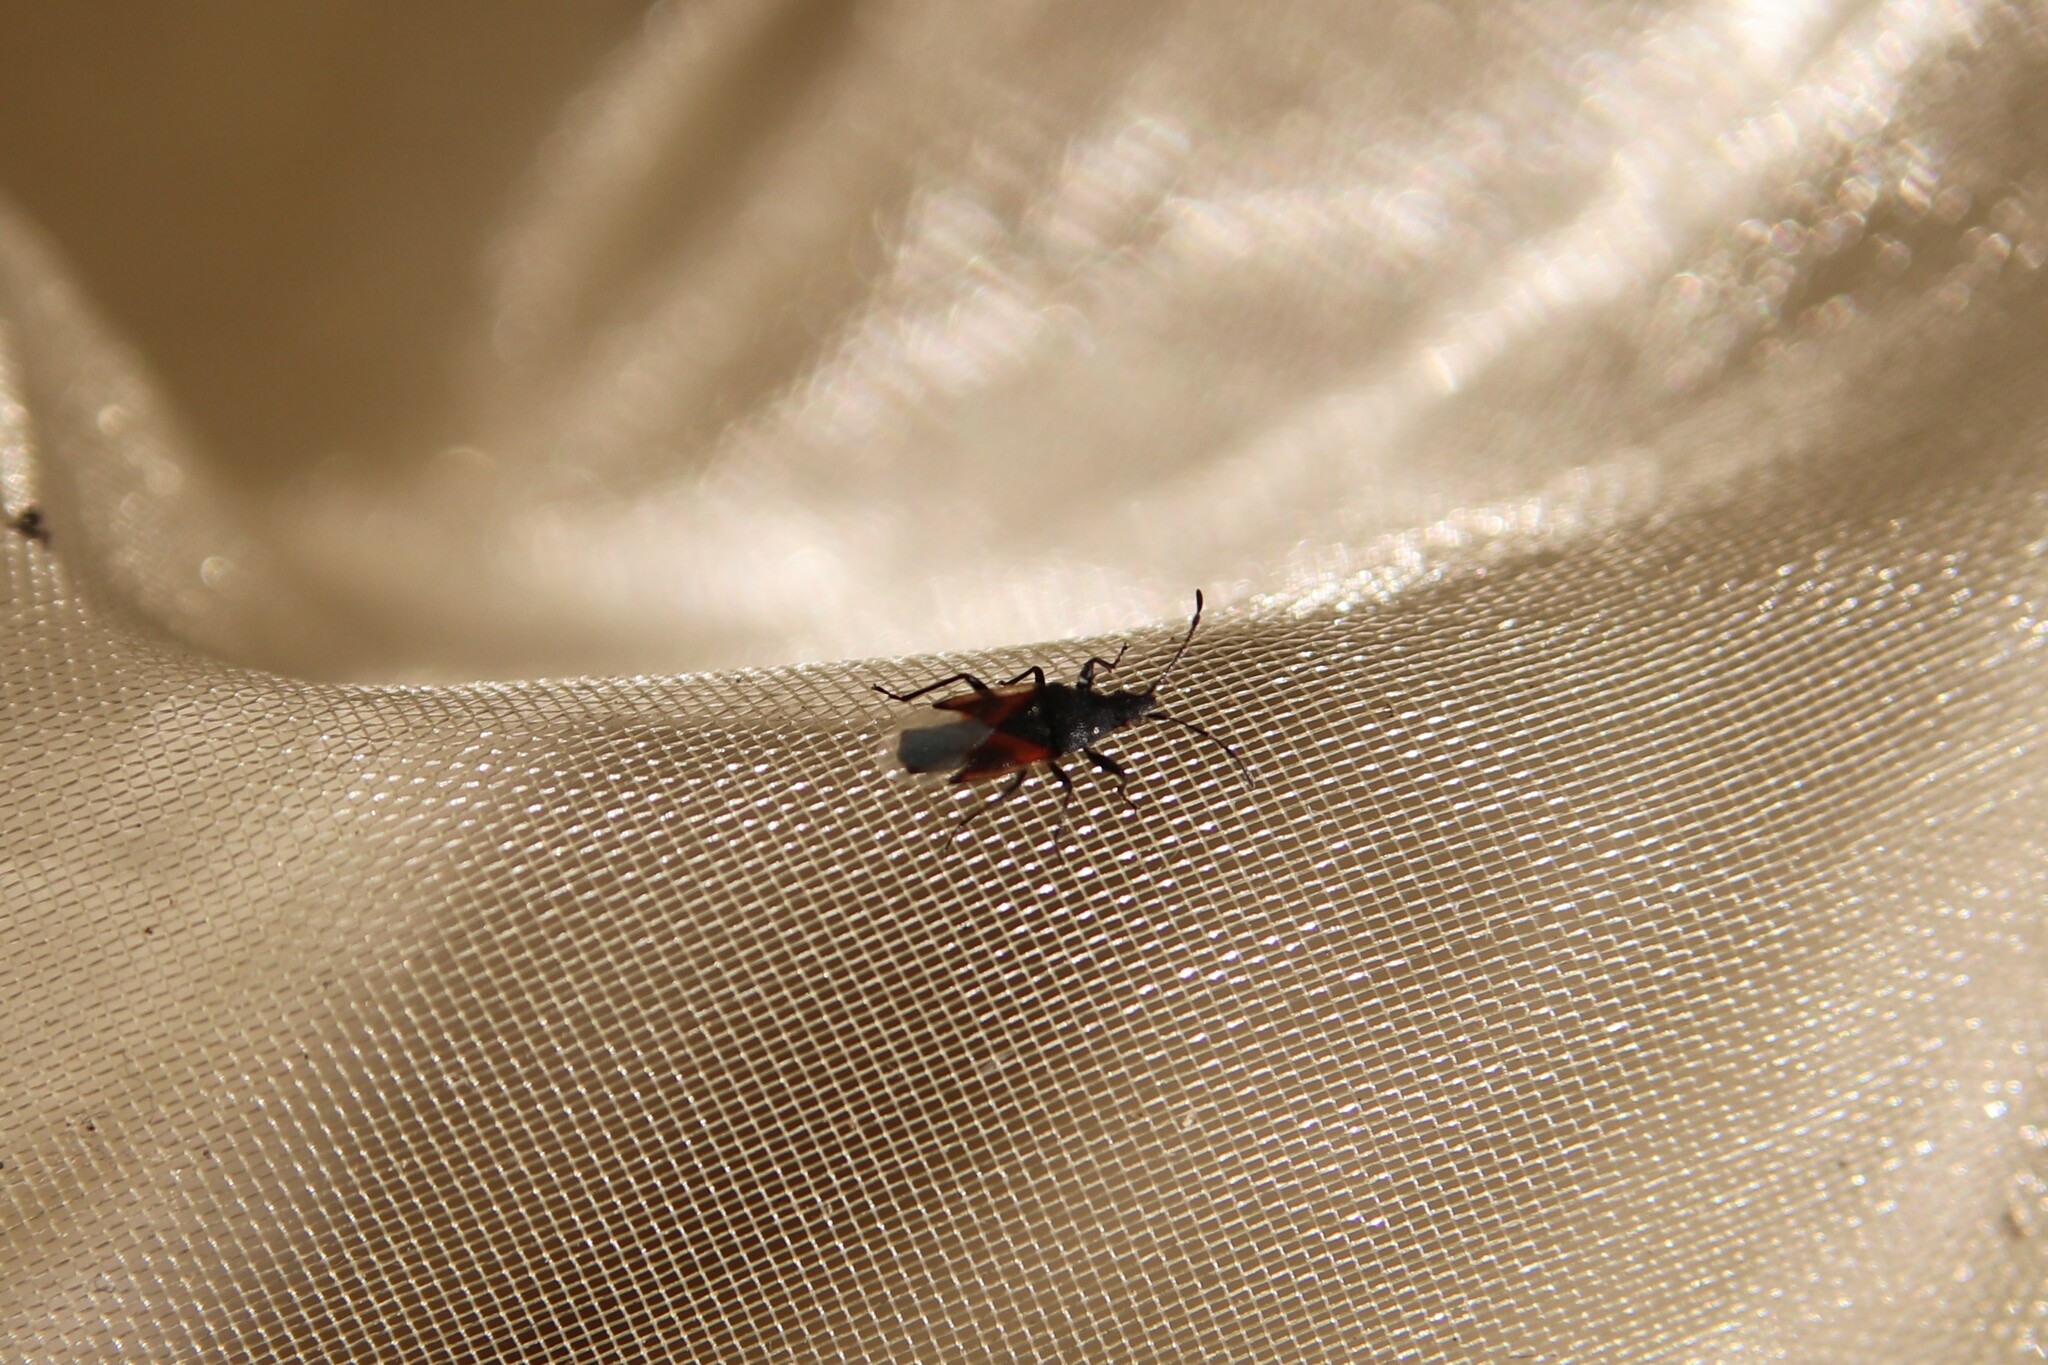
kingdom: Animalia
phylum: Arthropoda
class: Insecta
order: Hemiptera
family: Oxycarenidae
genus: Oxycarenus
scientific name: Oxycarenus lavaterae
